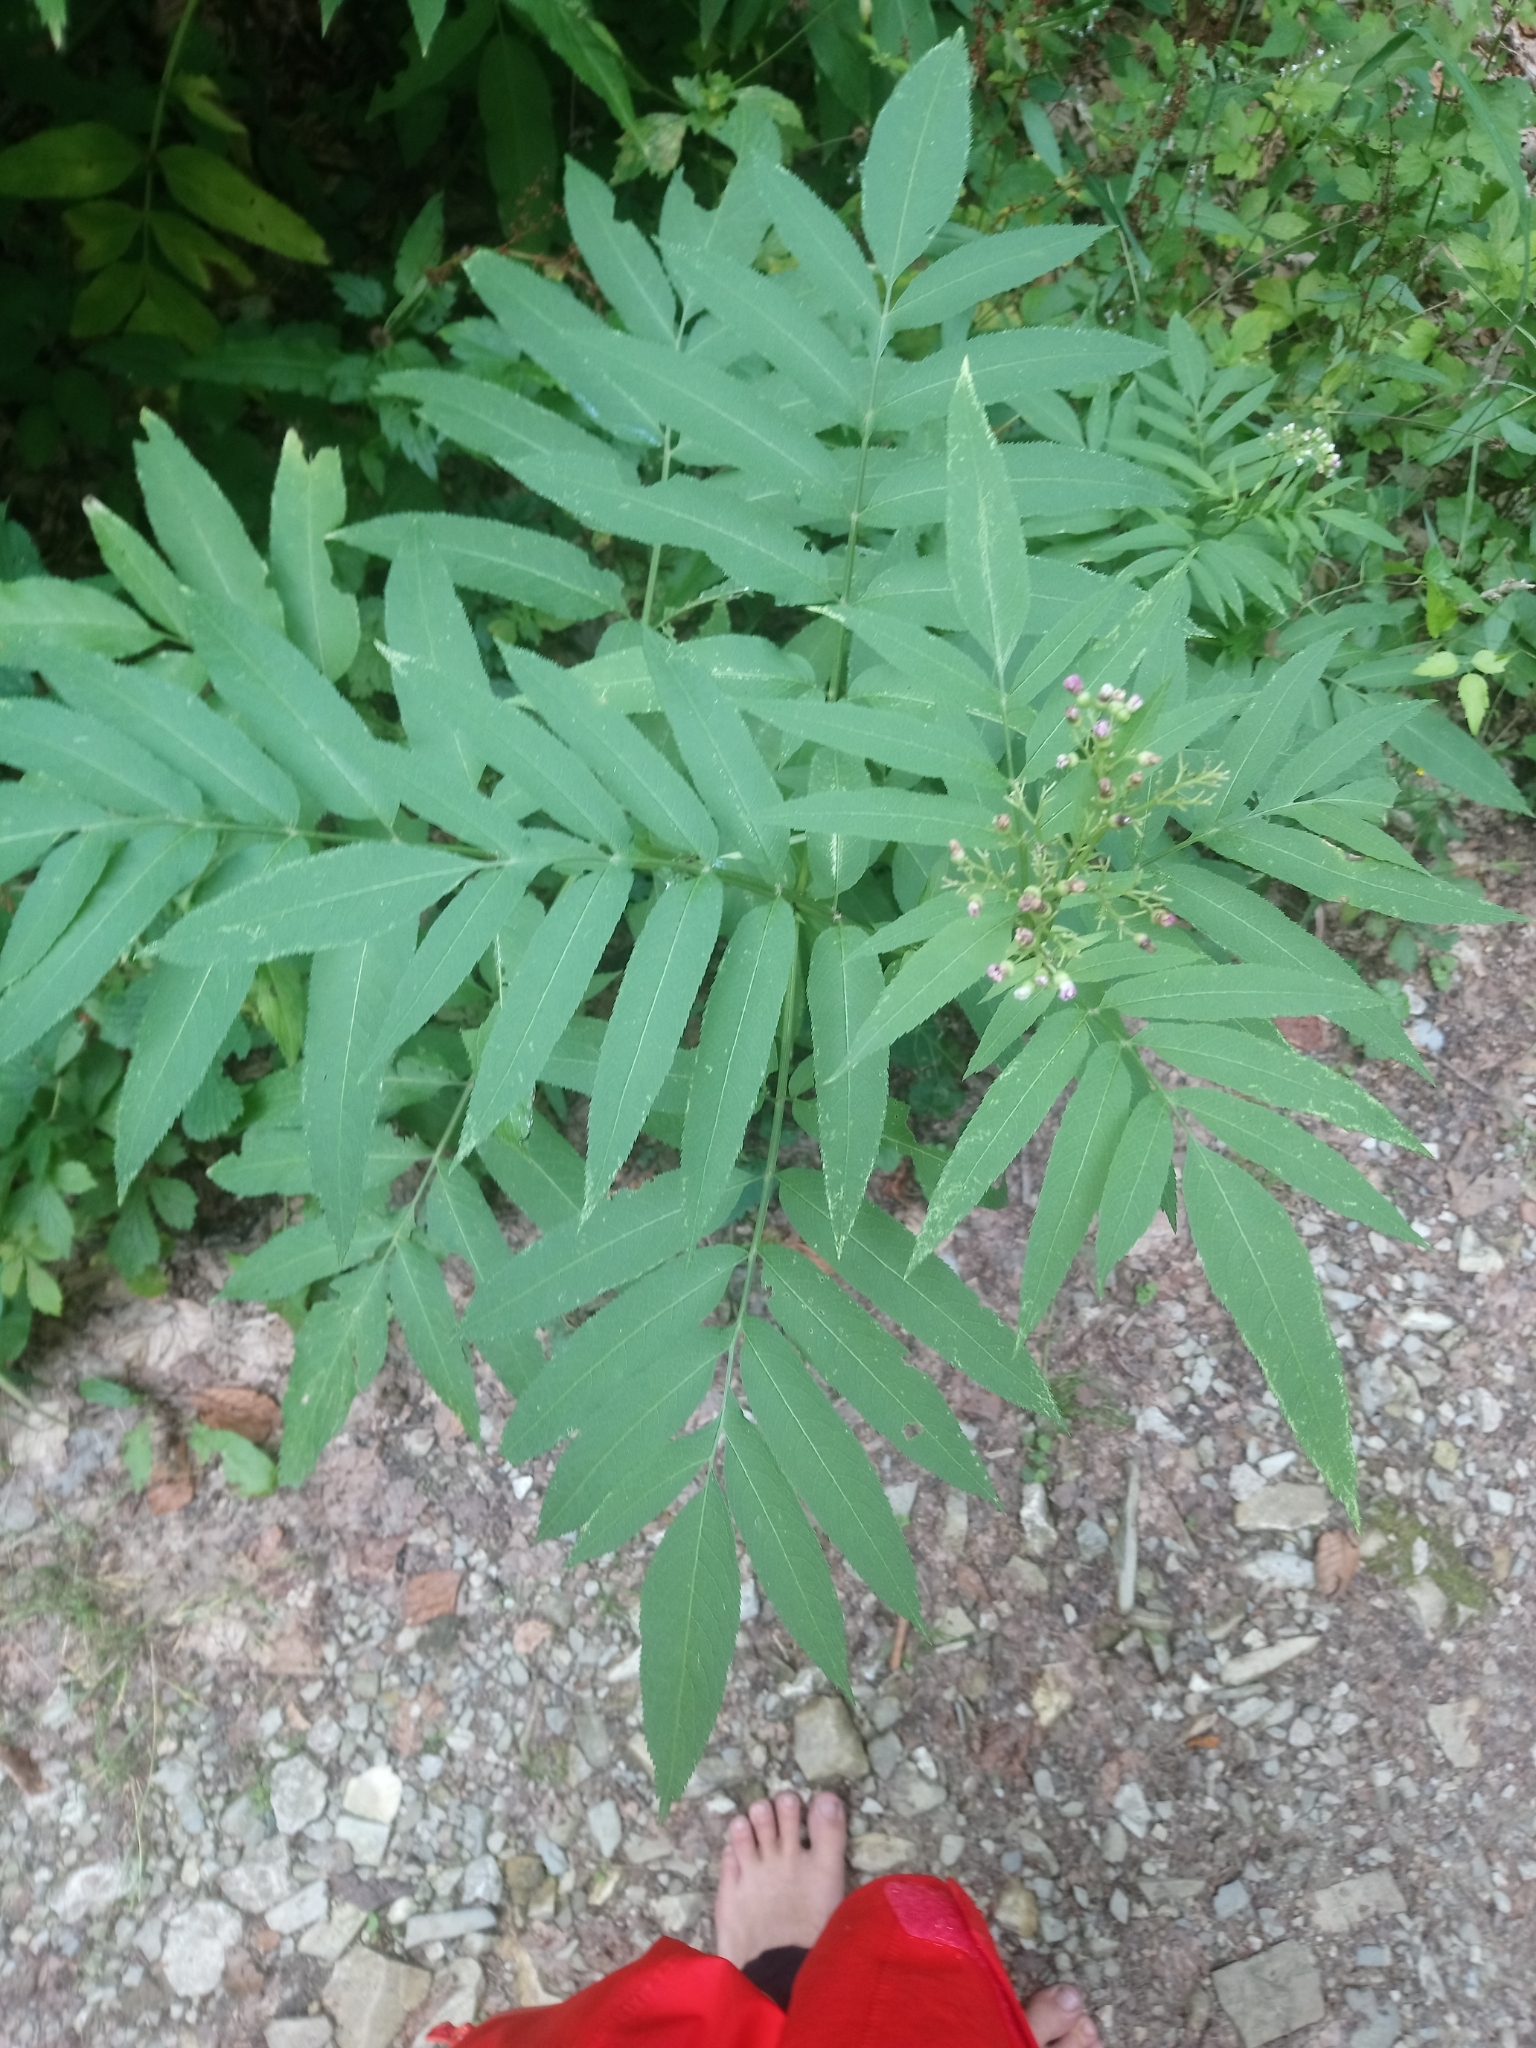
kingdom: Plantae
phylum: Tracheophyta
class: Magnoliopsida
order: Dipsacales
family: Viburnaceae
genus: Sambucus
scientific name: Sambucus ebulus
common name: Dwarf elder
